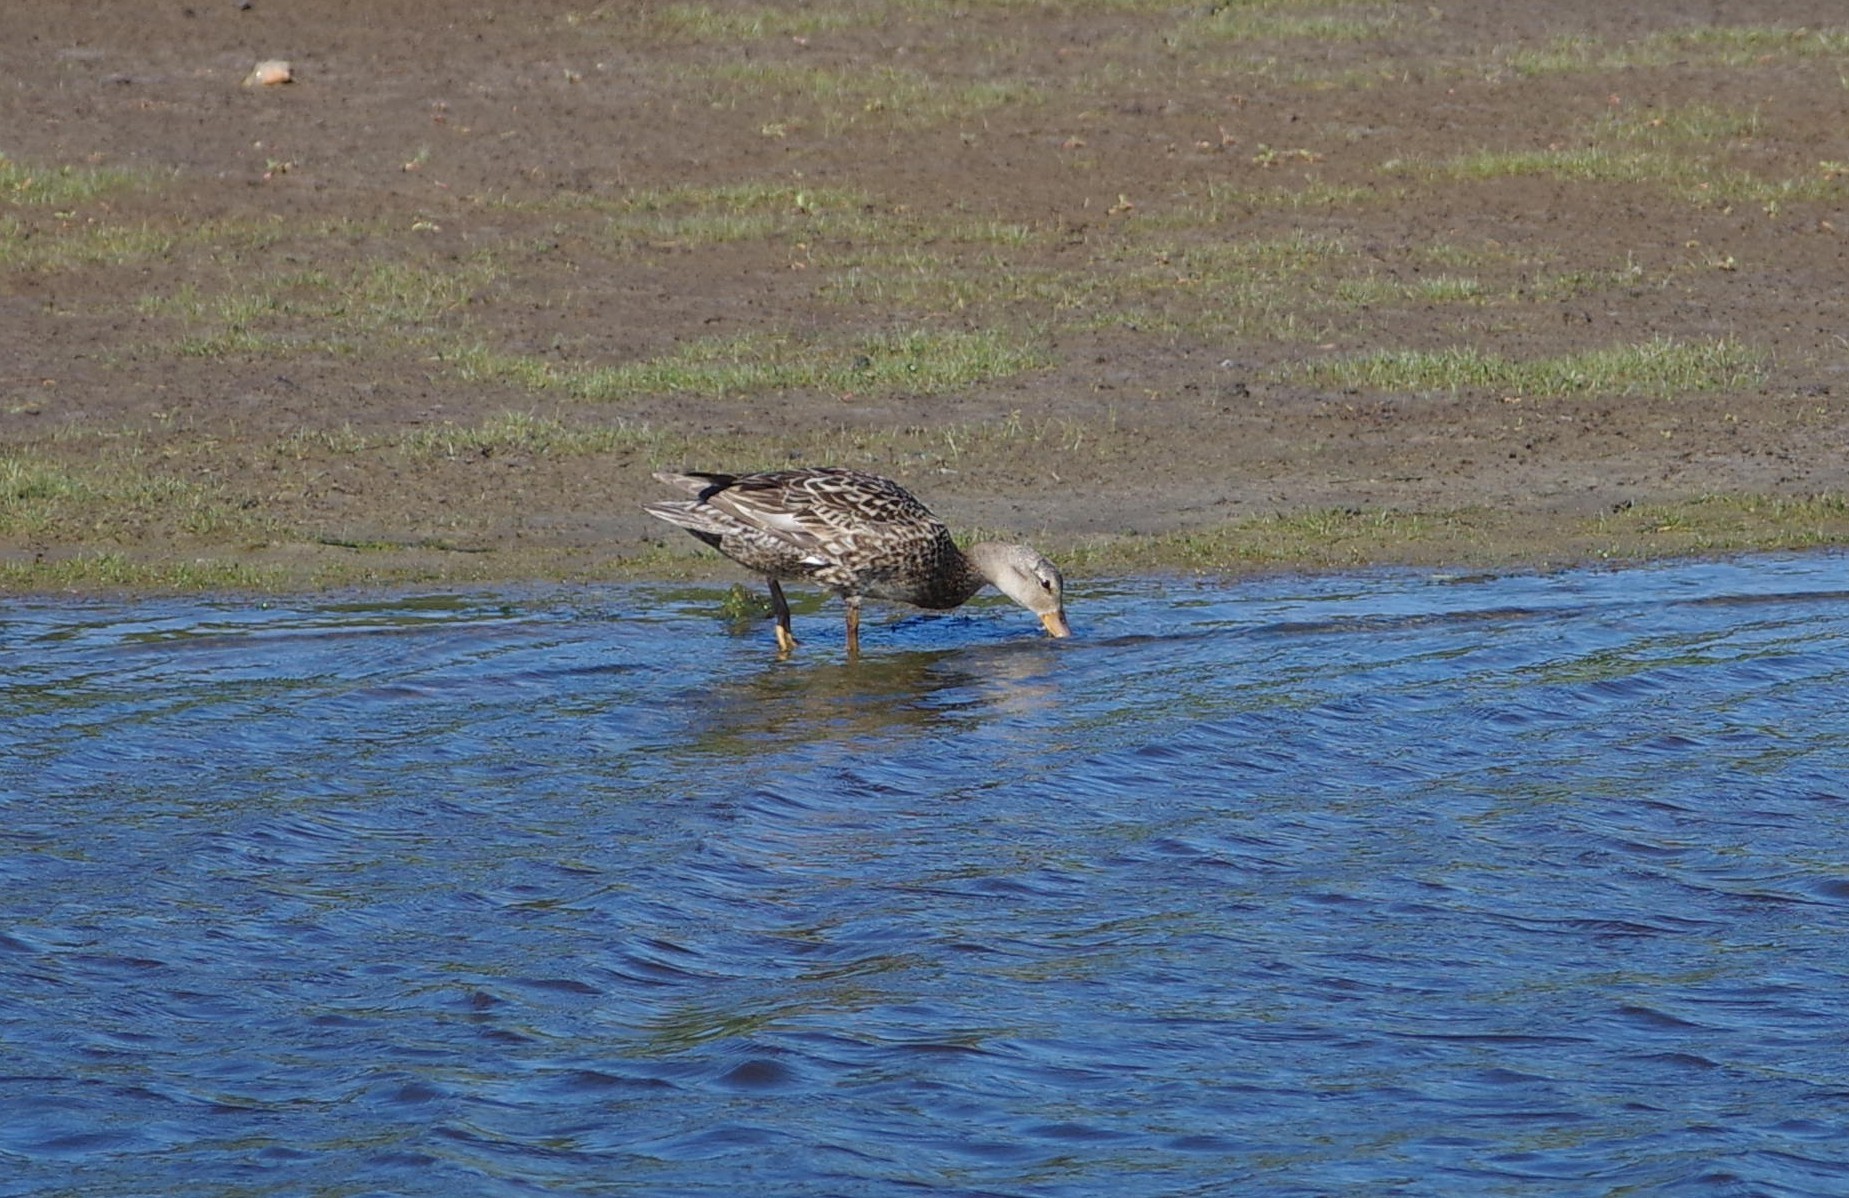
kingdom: Animalia
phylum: Chordata
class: Aves
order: Anseriformes
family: Anatidae
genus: Anas
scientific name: Anas platyrhynchos
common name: Mallard
